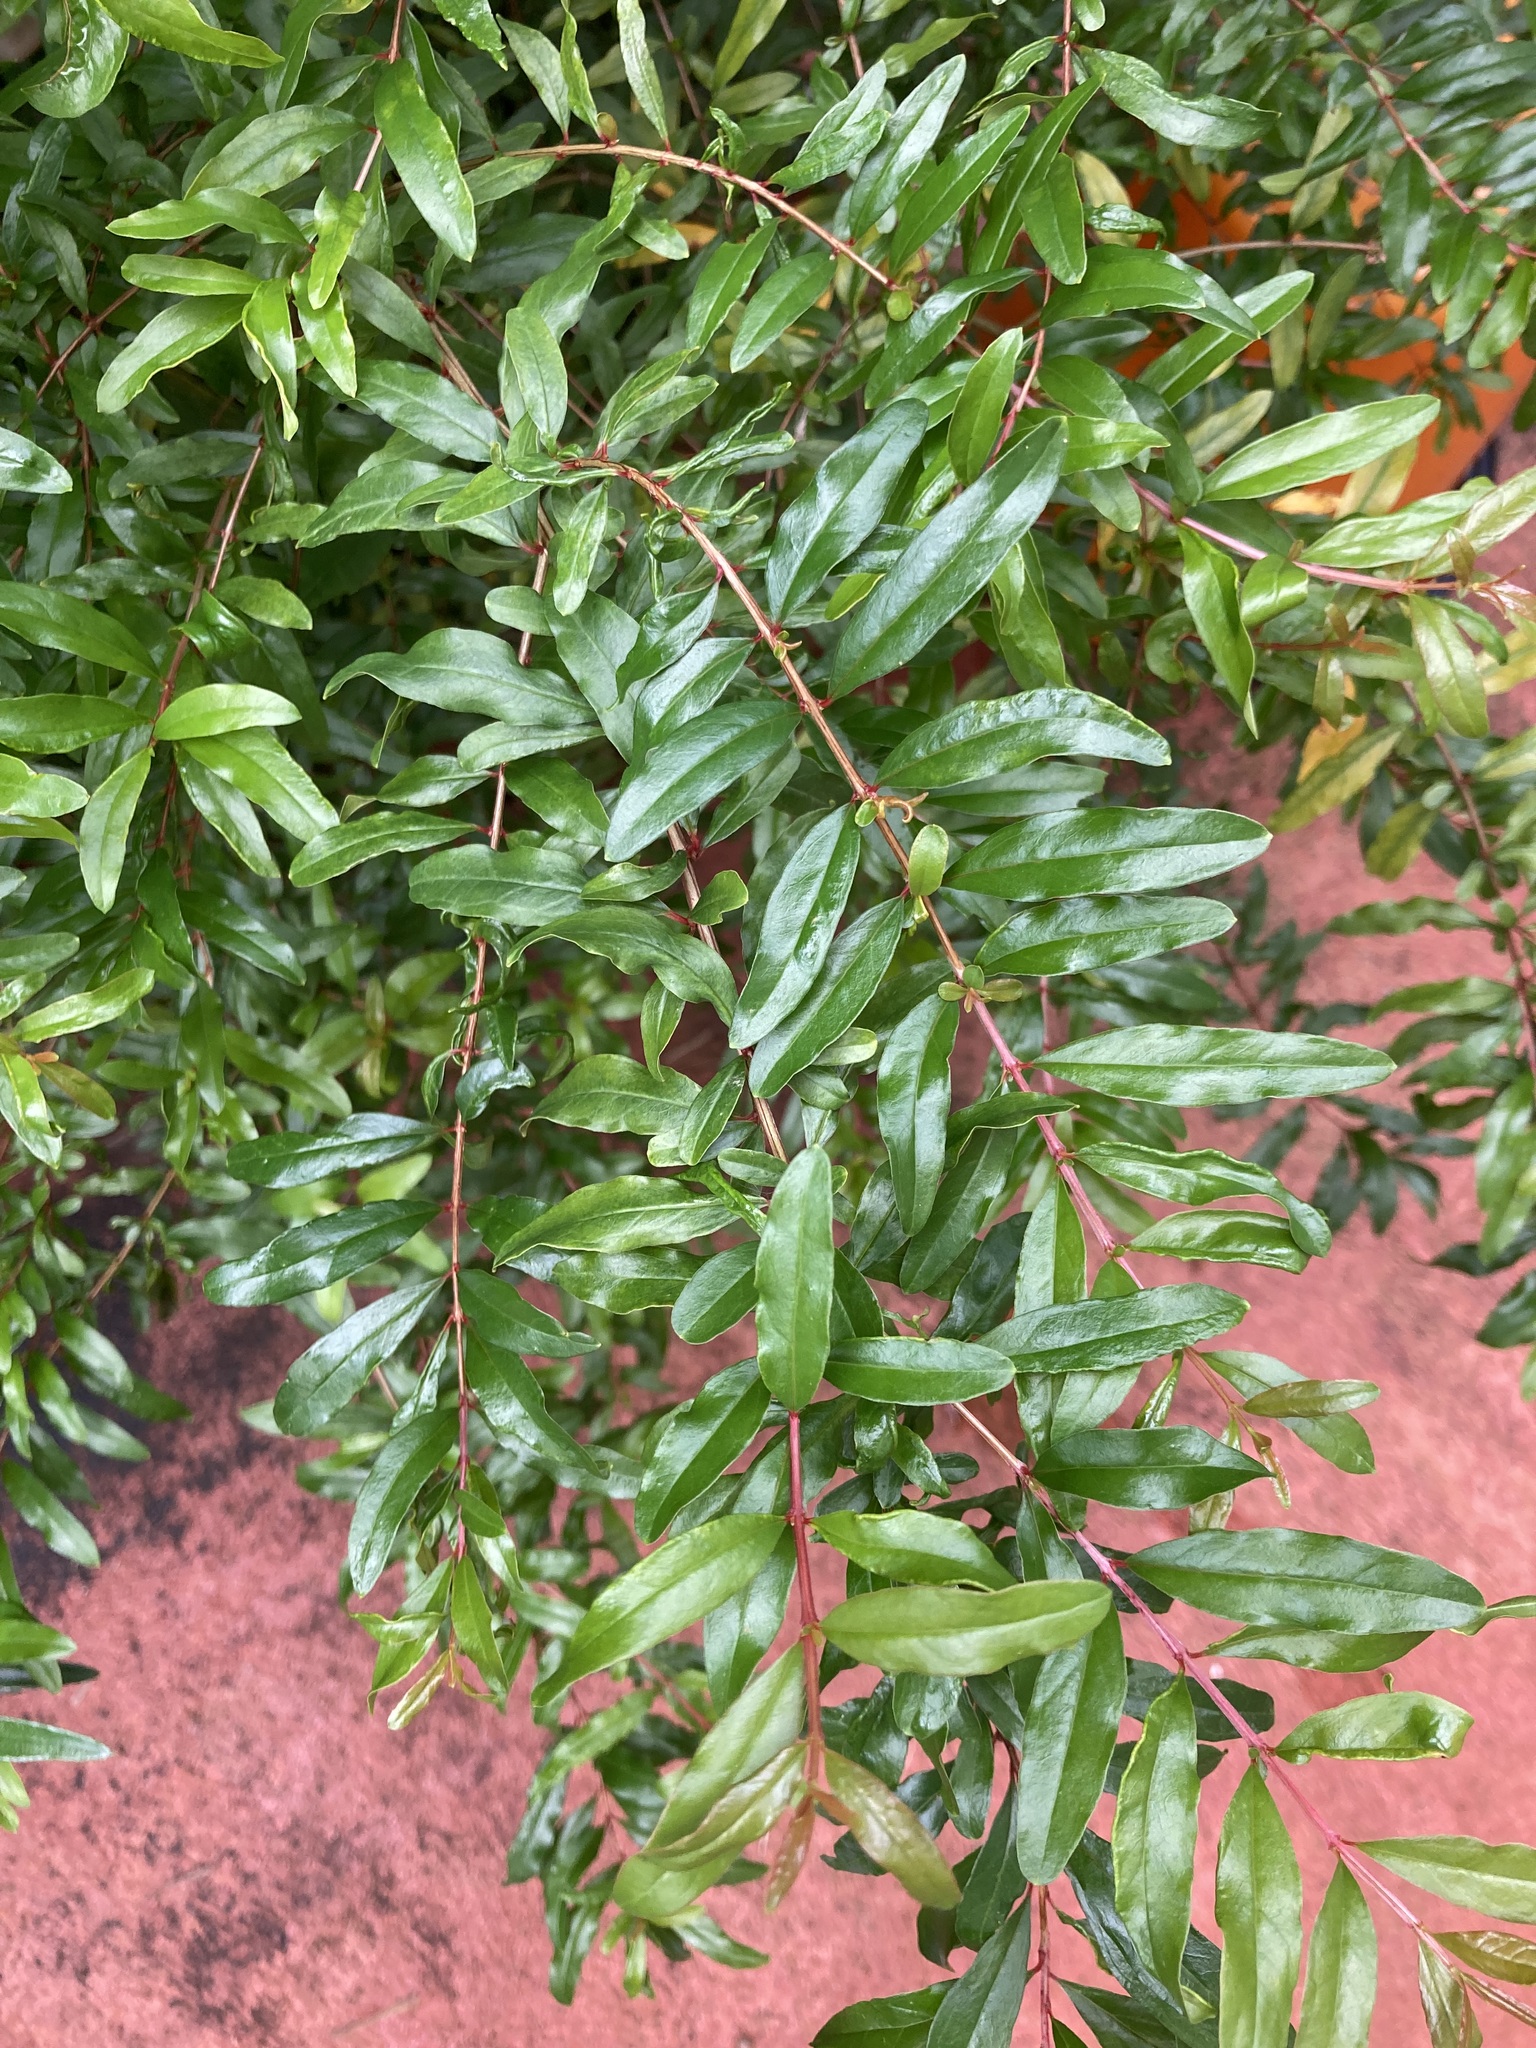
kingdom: Plantae
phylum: Tracheophyta
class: Magnoliopsida
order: Myrtales
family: Lythraceae
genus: Punica
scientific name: Punica granatum
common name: Pomegranate
